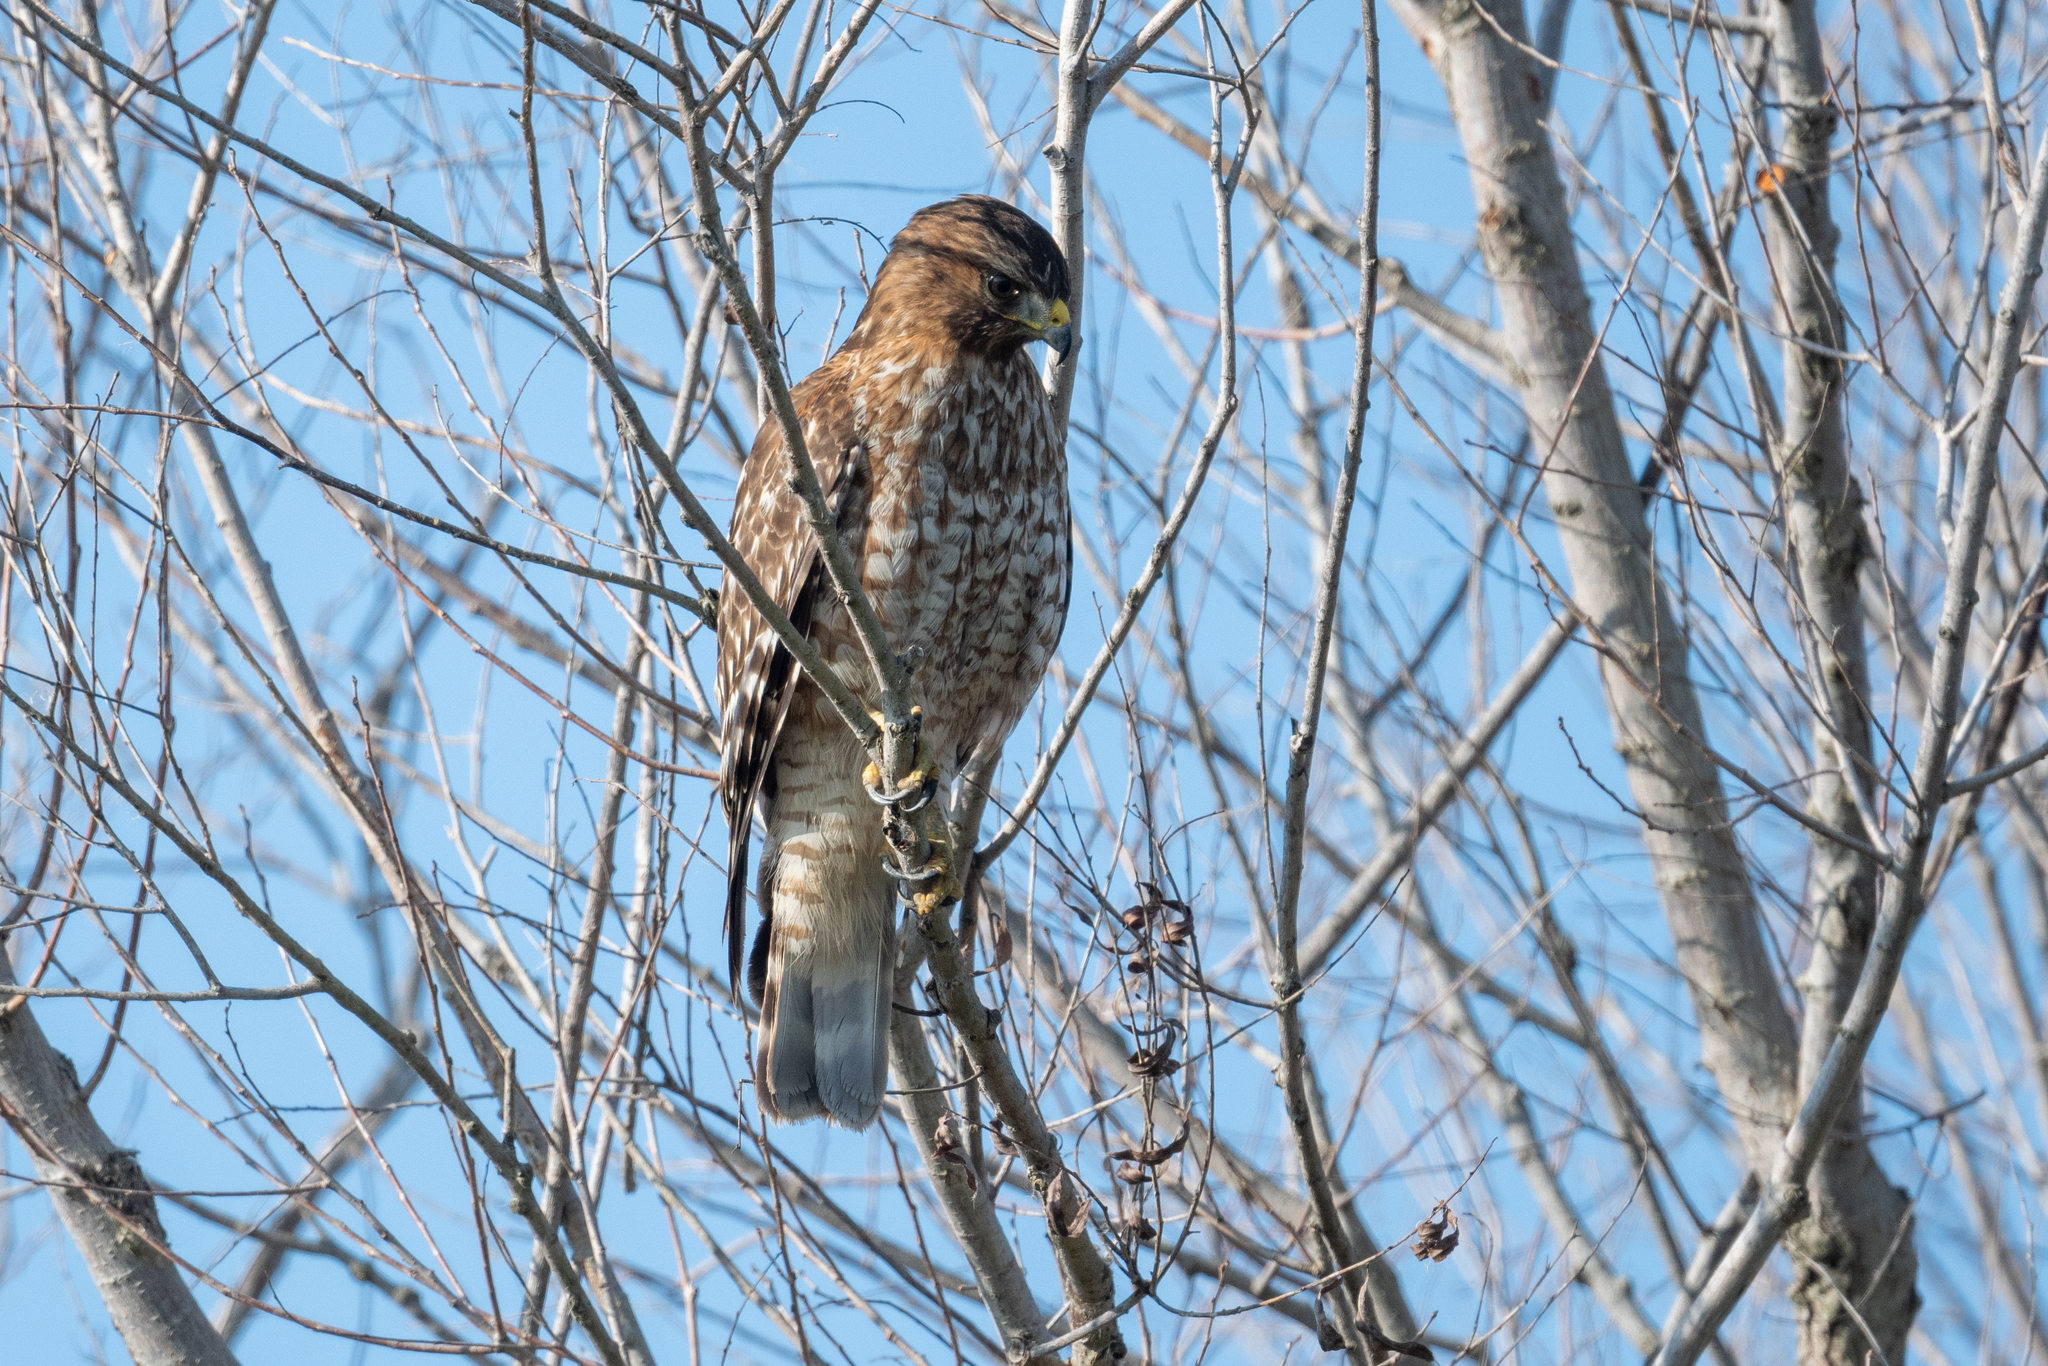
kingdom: Animalia
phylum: Chordata
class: Aves
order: Accipitriformes
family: Accipitridae
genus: Buteo
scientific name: Buteo lineatus
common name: Red-shouldered hawk
